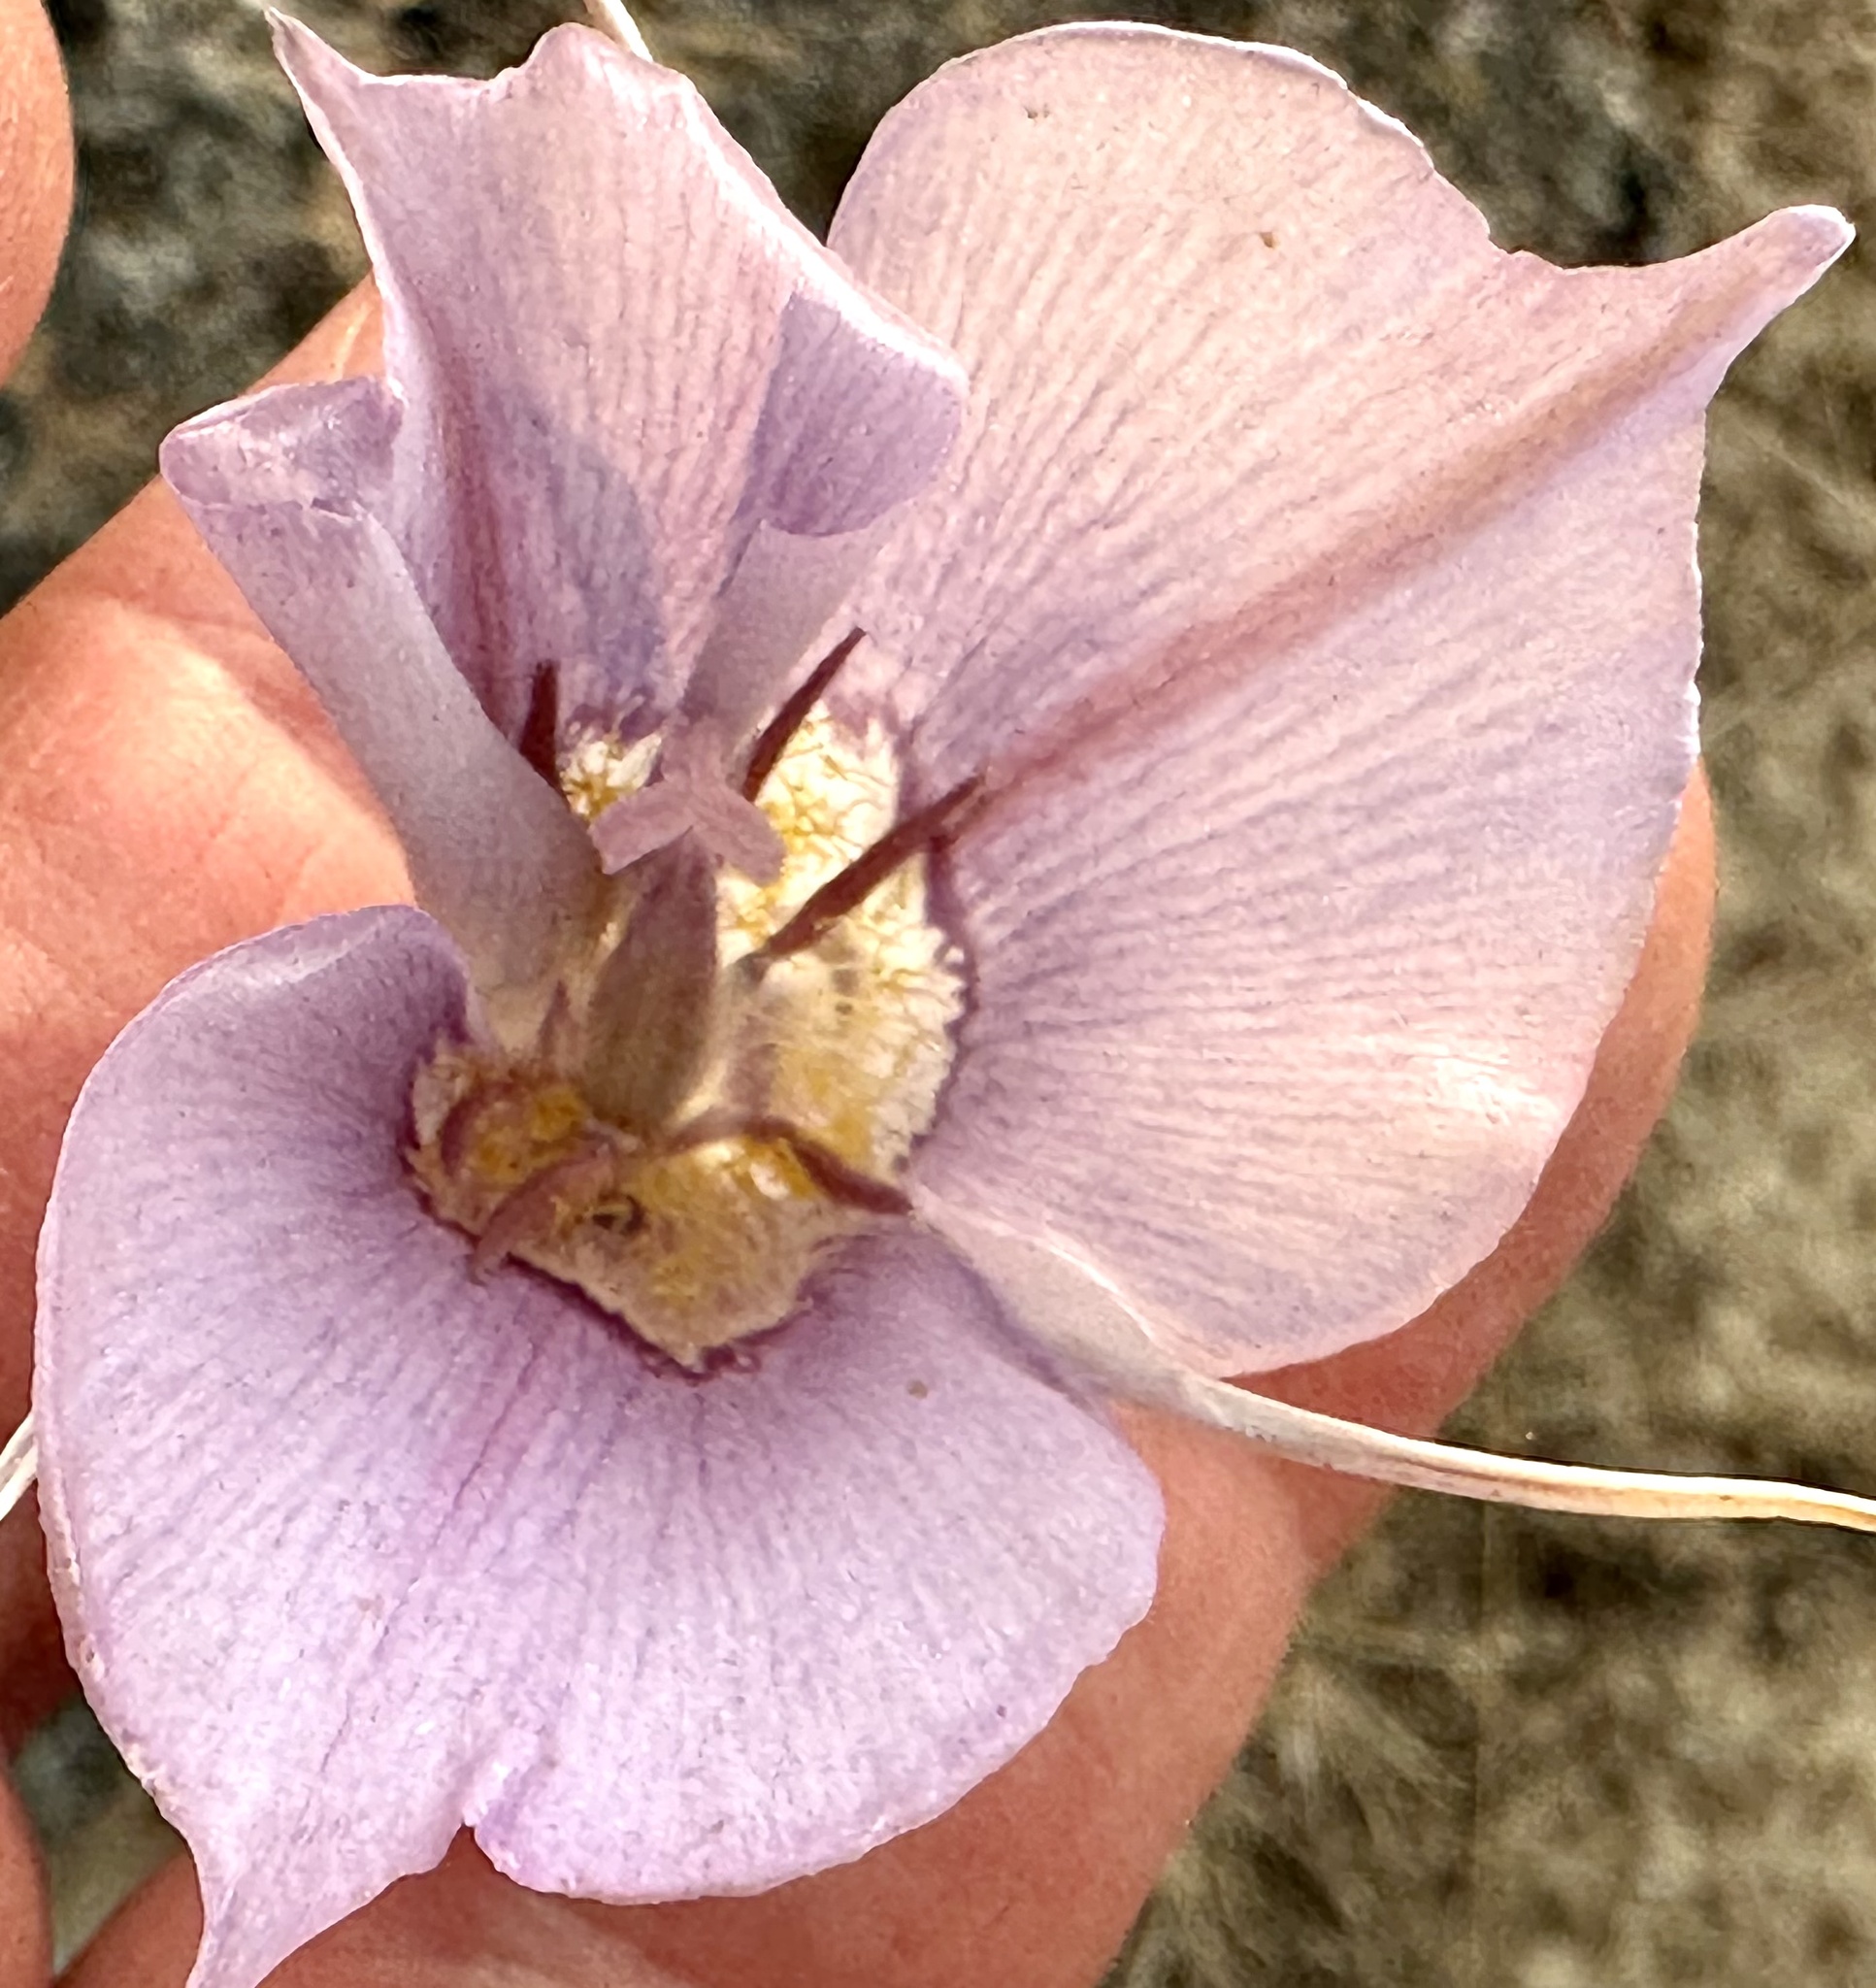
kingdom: Plantae
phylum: Tracheophyta
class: Liliopsida
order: Liliales
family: Liliaceae
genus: Calochortus
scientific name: Calochortus macrocarpus
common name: Green-band mariposa lily
